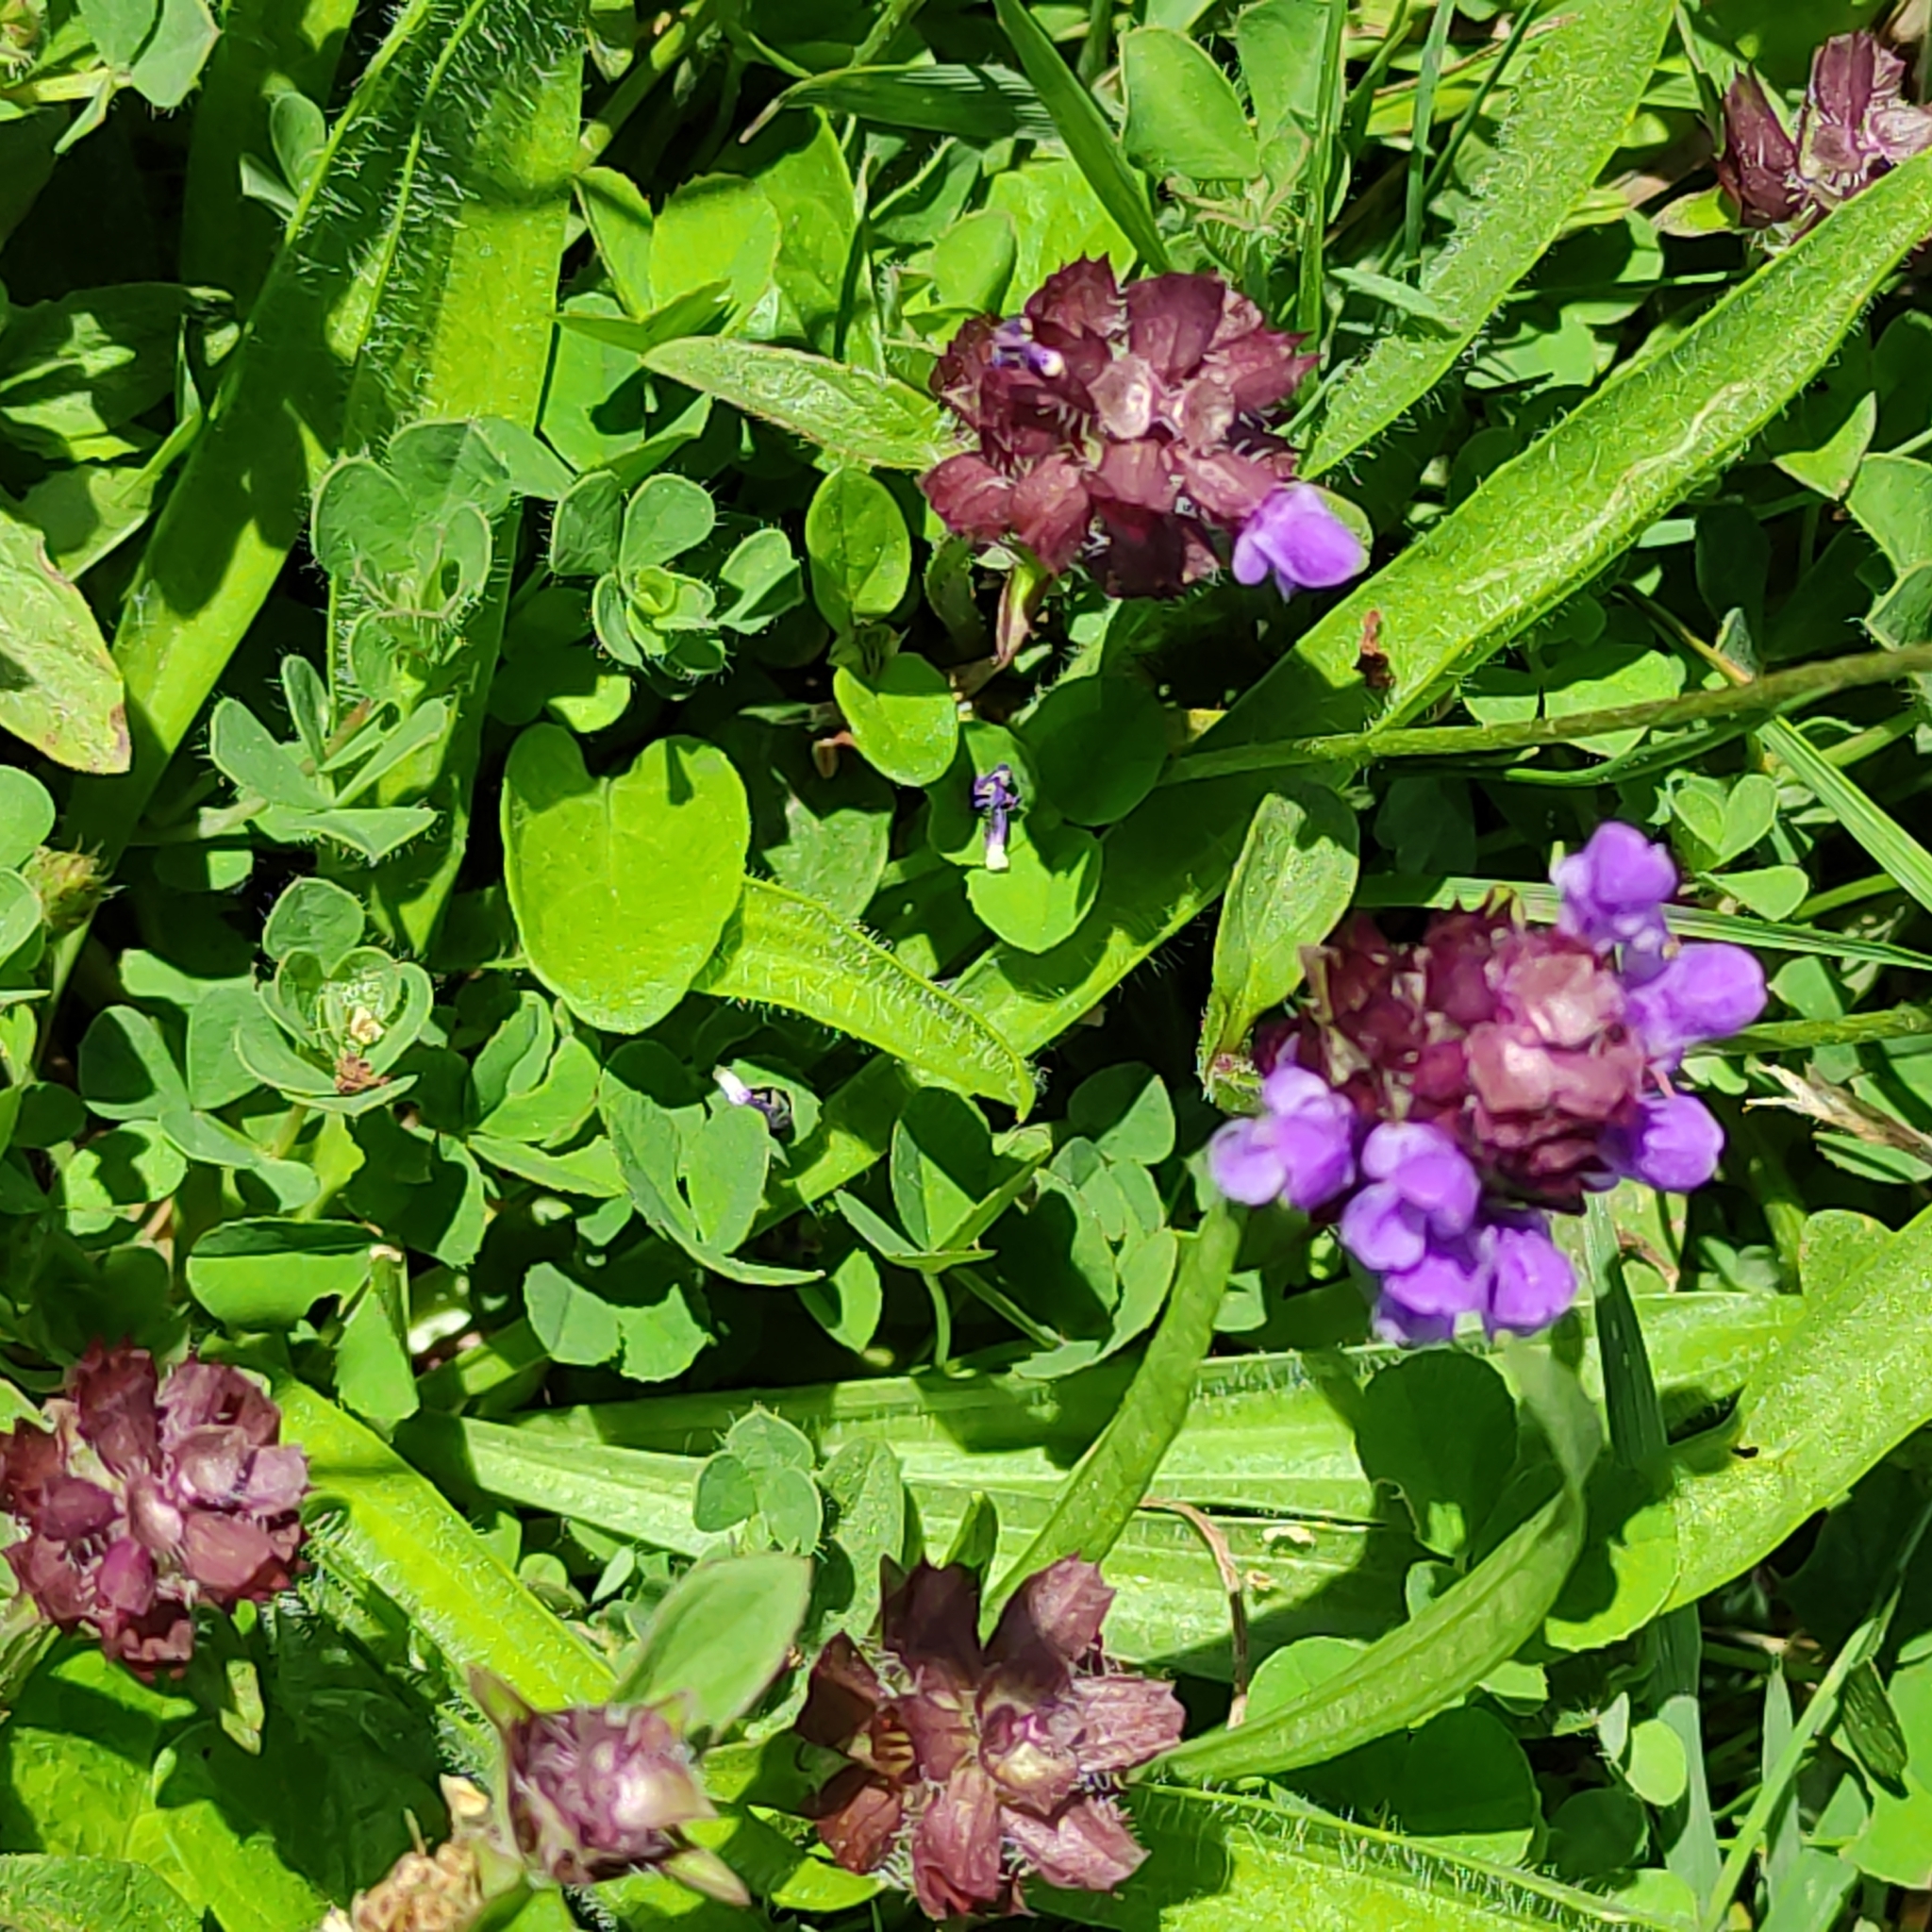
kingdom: Plantae
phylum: Tracheophyta
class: Magnoliopsida
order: Lamiales
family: Lamiaceae
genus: Prunella
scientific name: Prunella vulgaris
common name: Heal-all
